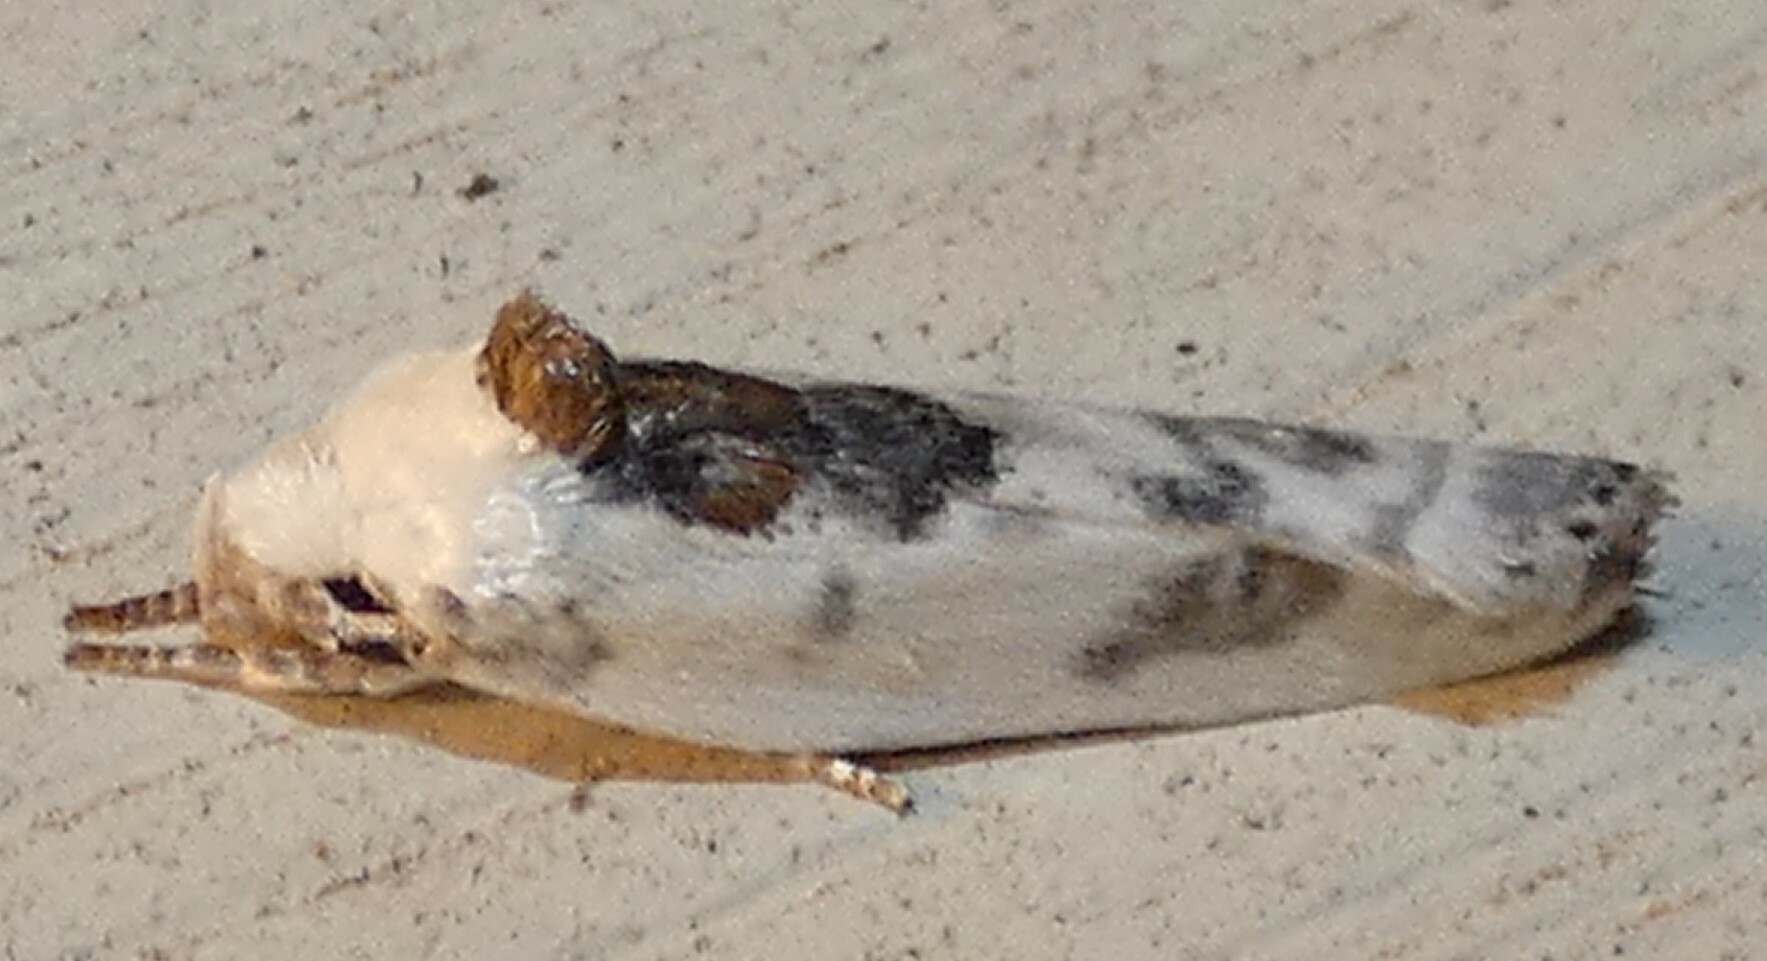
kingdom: Animalia
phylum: Arthropoda
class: Insecta
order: Lepidoptera
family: Depressariidae
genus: Antaeotricha
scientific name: Antaeotricha leucillana
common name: Pale gray bird-dropping moth
